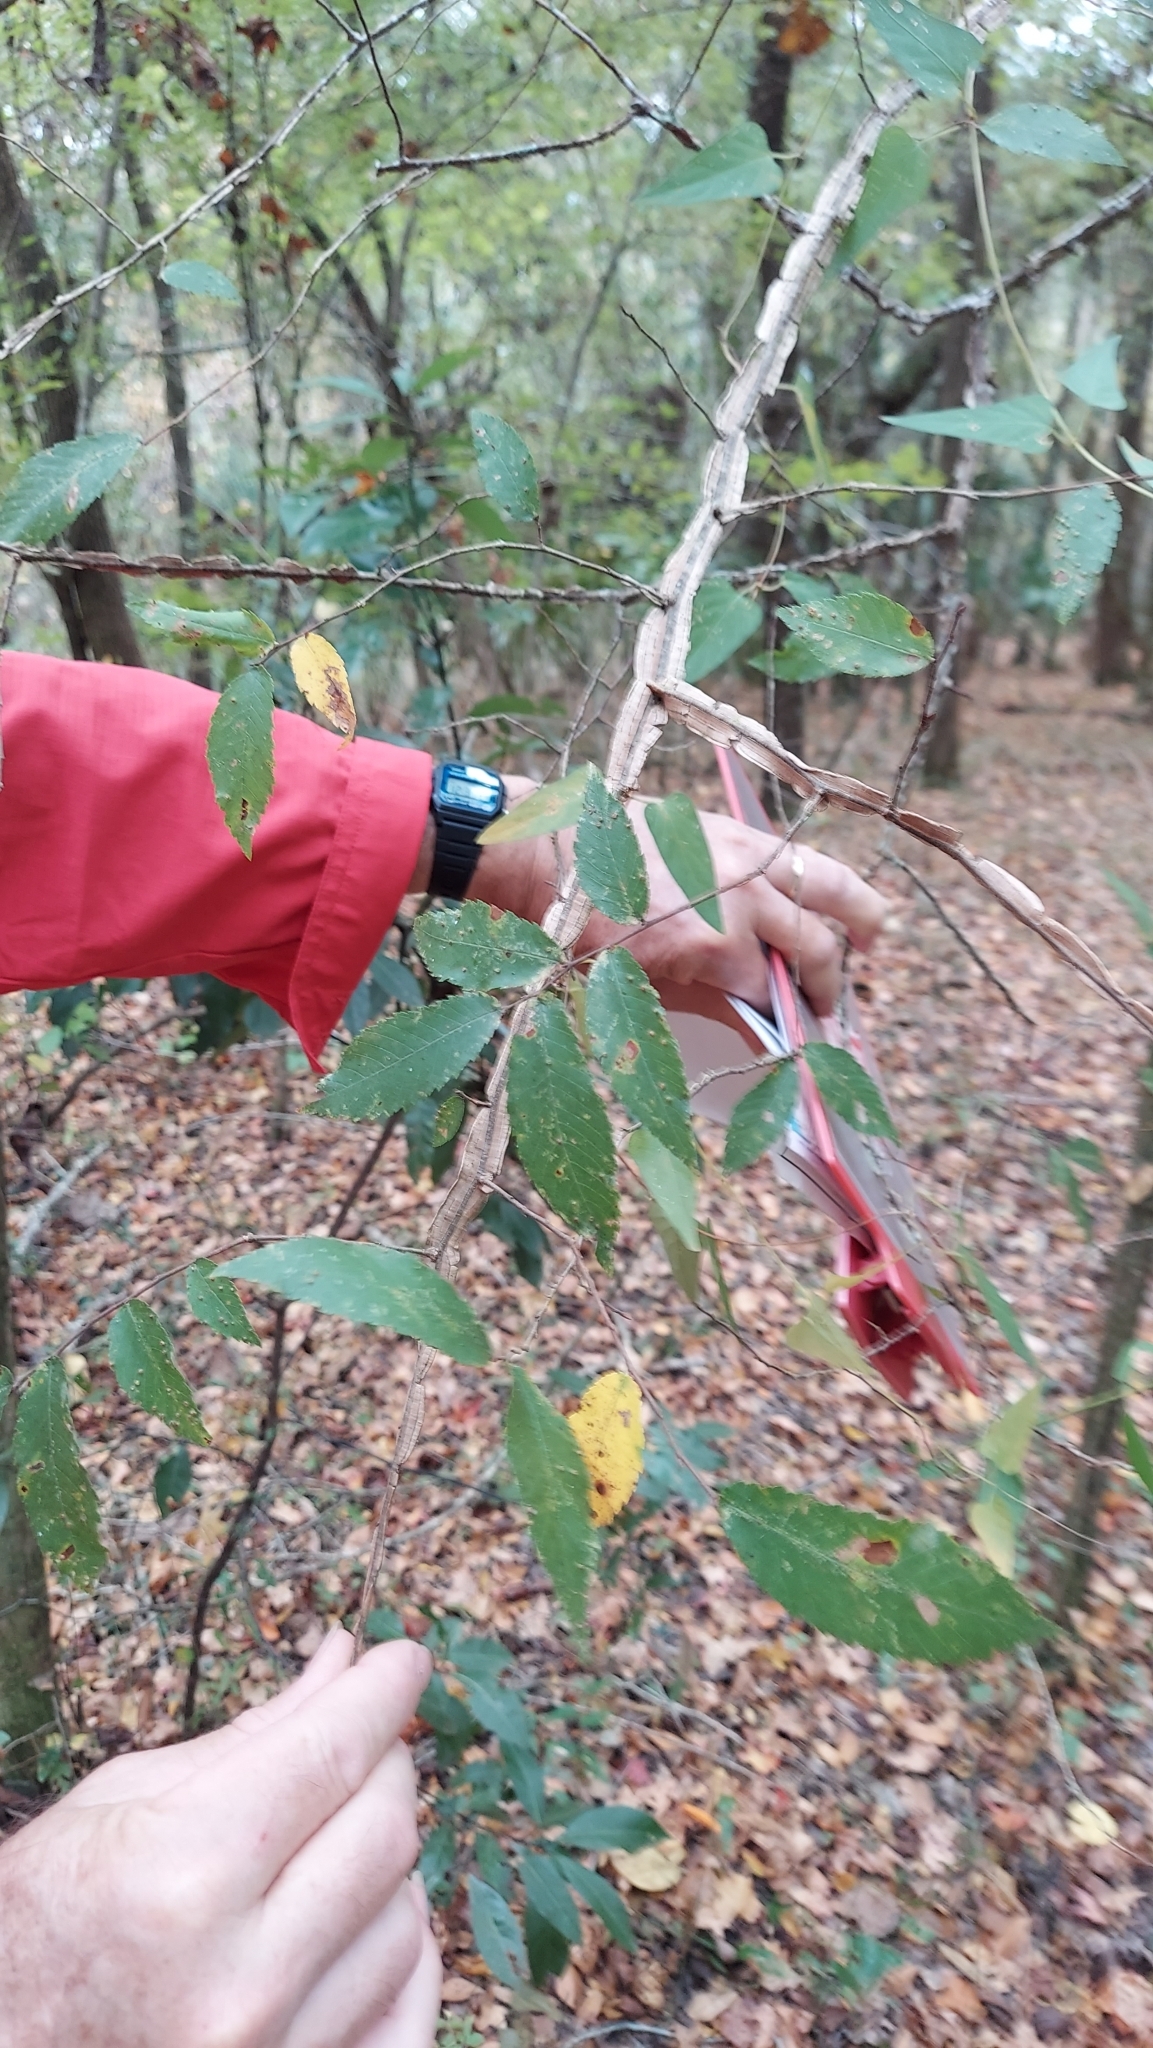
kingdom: Plantae
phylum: Tracheophyta
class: Magnoliopsida
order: Rosales
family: Ulmaceae
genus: Ulmus
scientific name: Ulmus alata
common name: Winged elm
